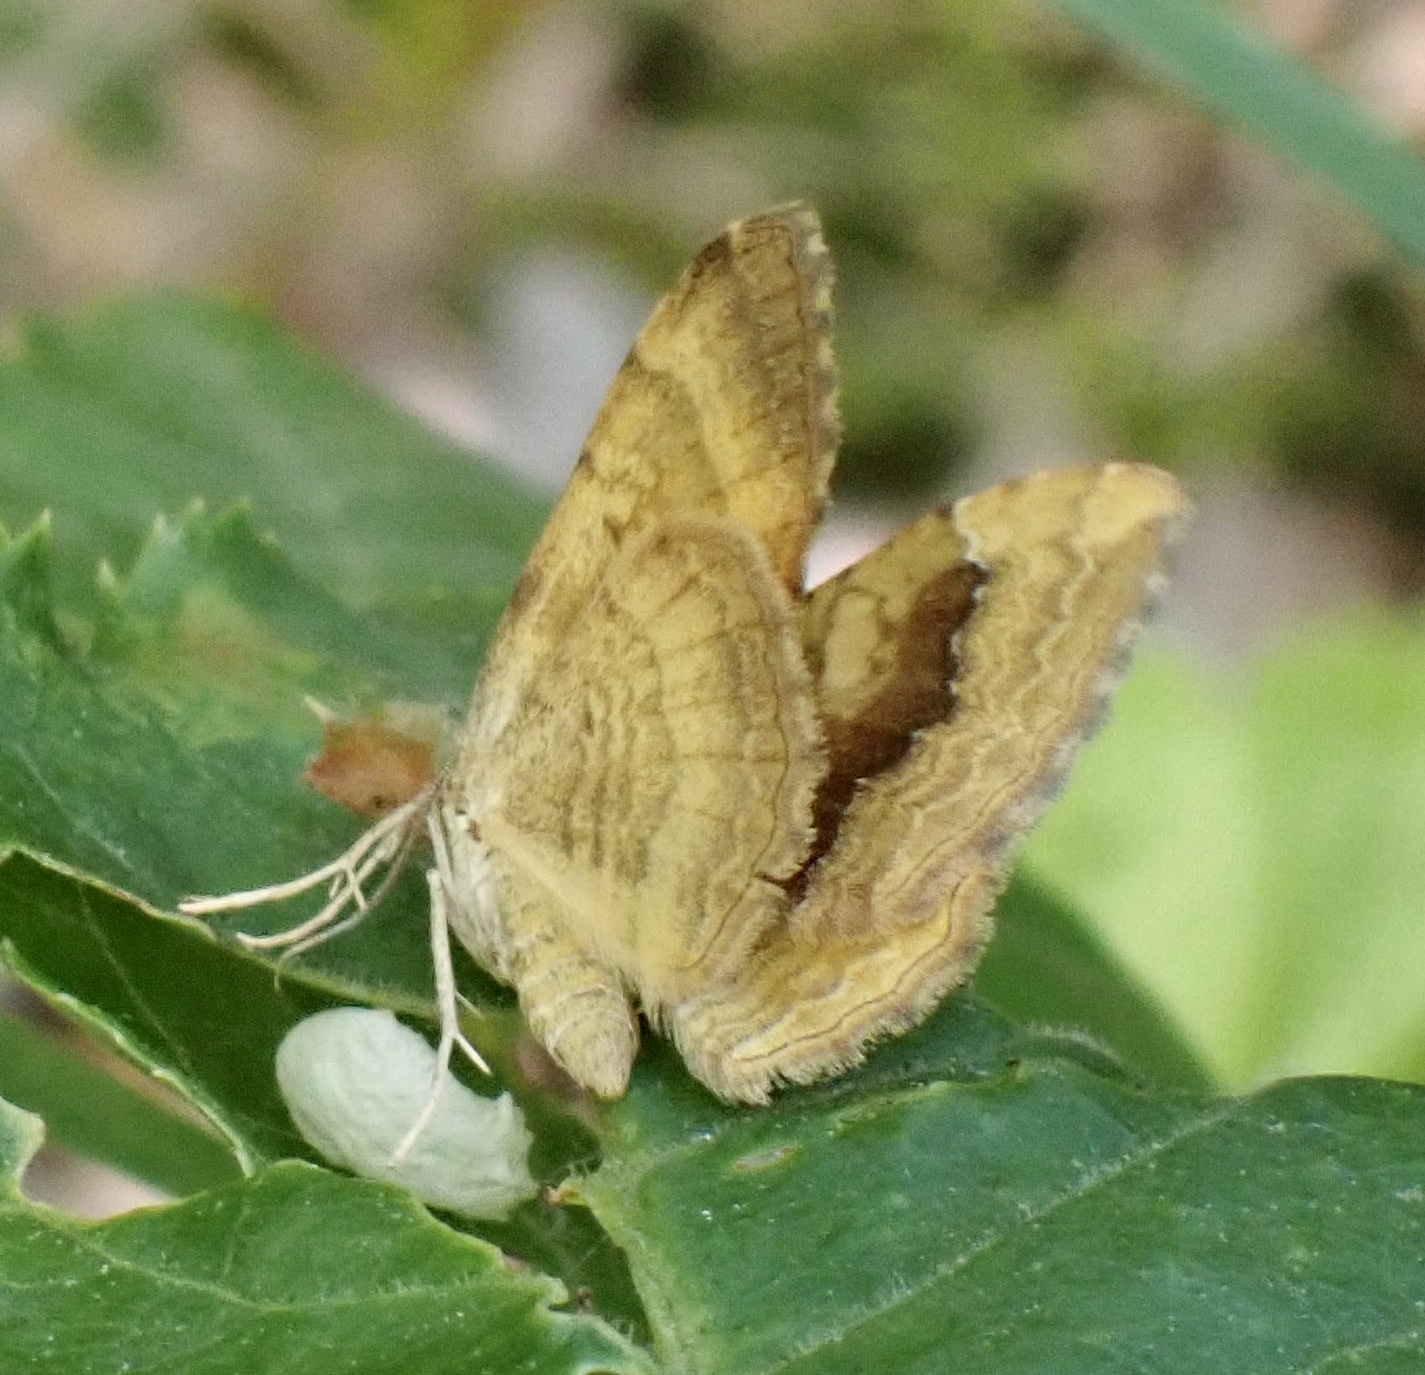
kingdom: Animalia
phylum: Arthropoda
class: Insecta
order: Lepidoptera
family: Geometridae
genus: Camptogramma
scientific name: Camptogramma bilineata
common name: Yellow shell
